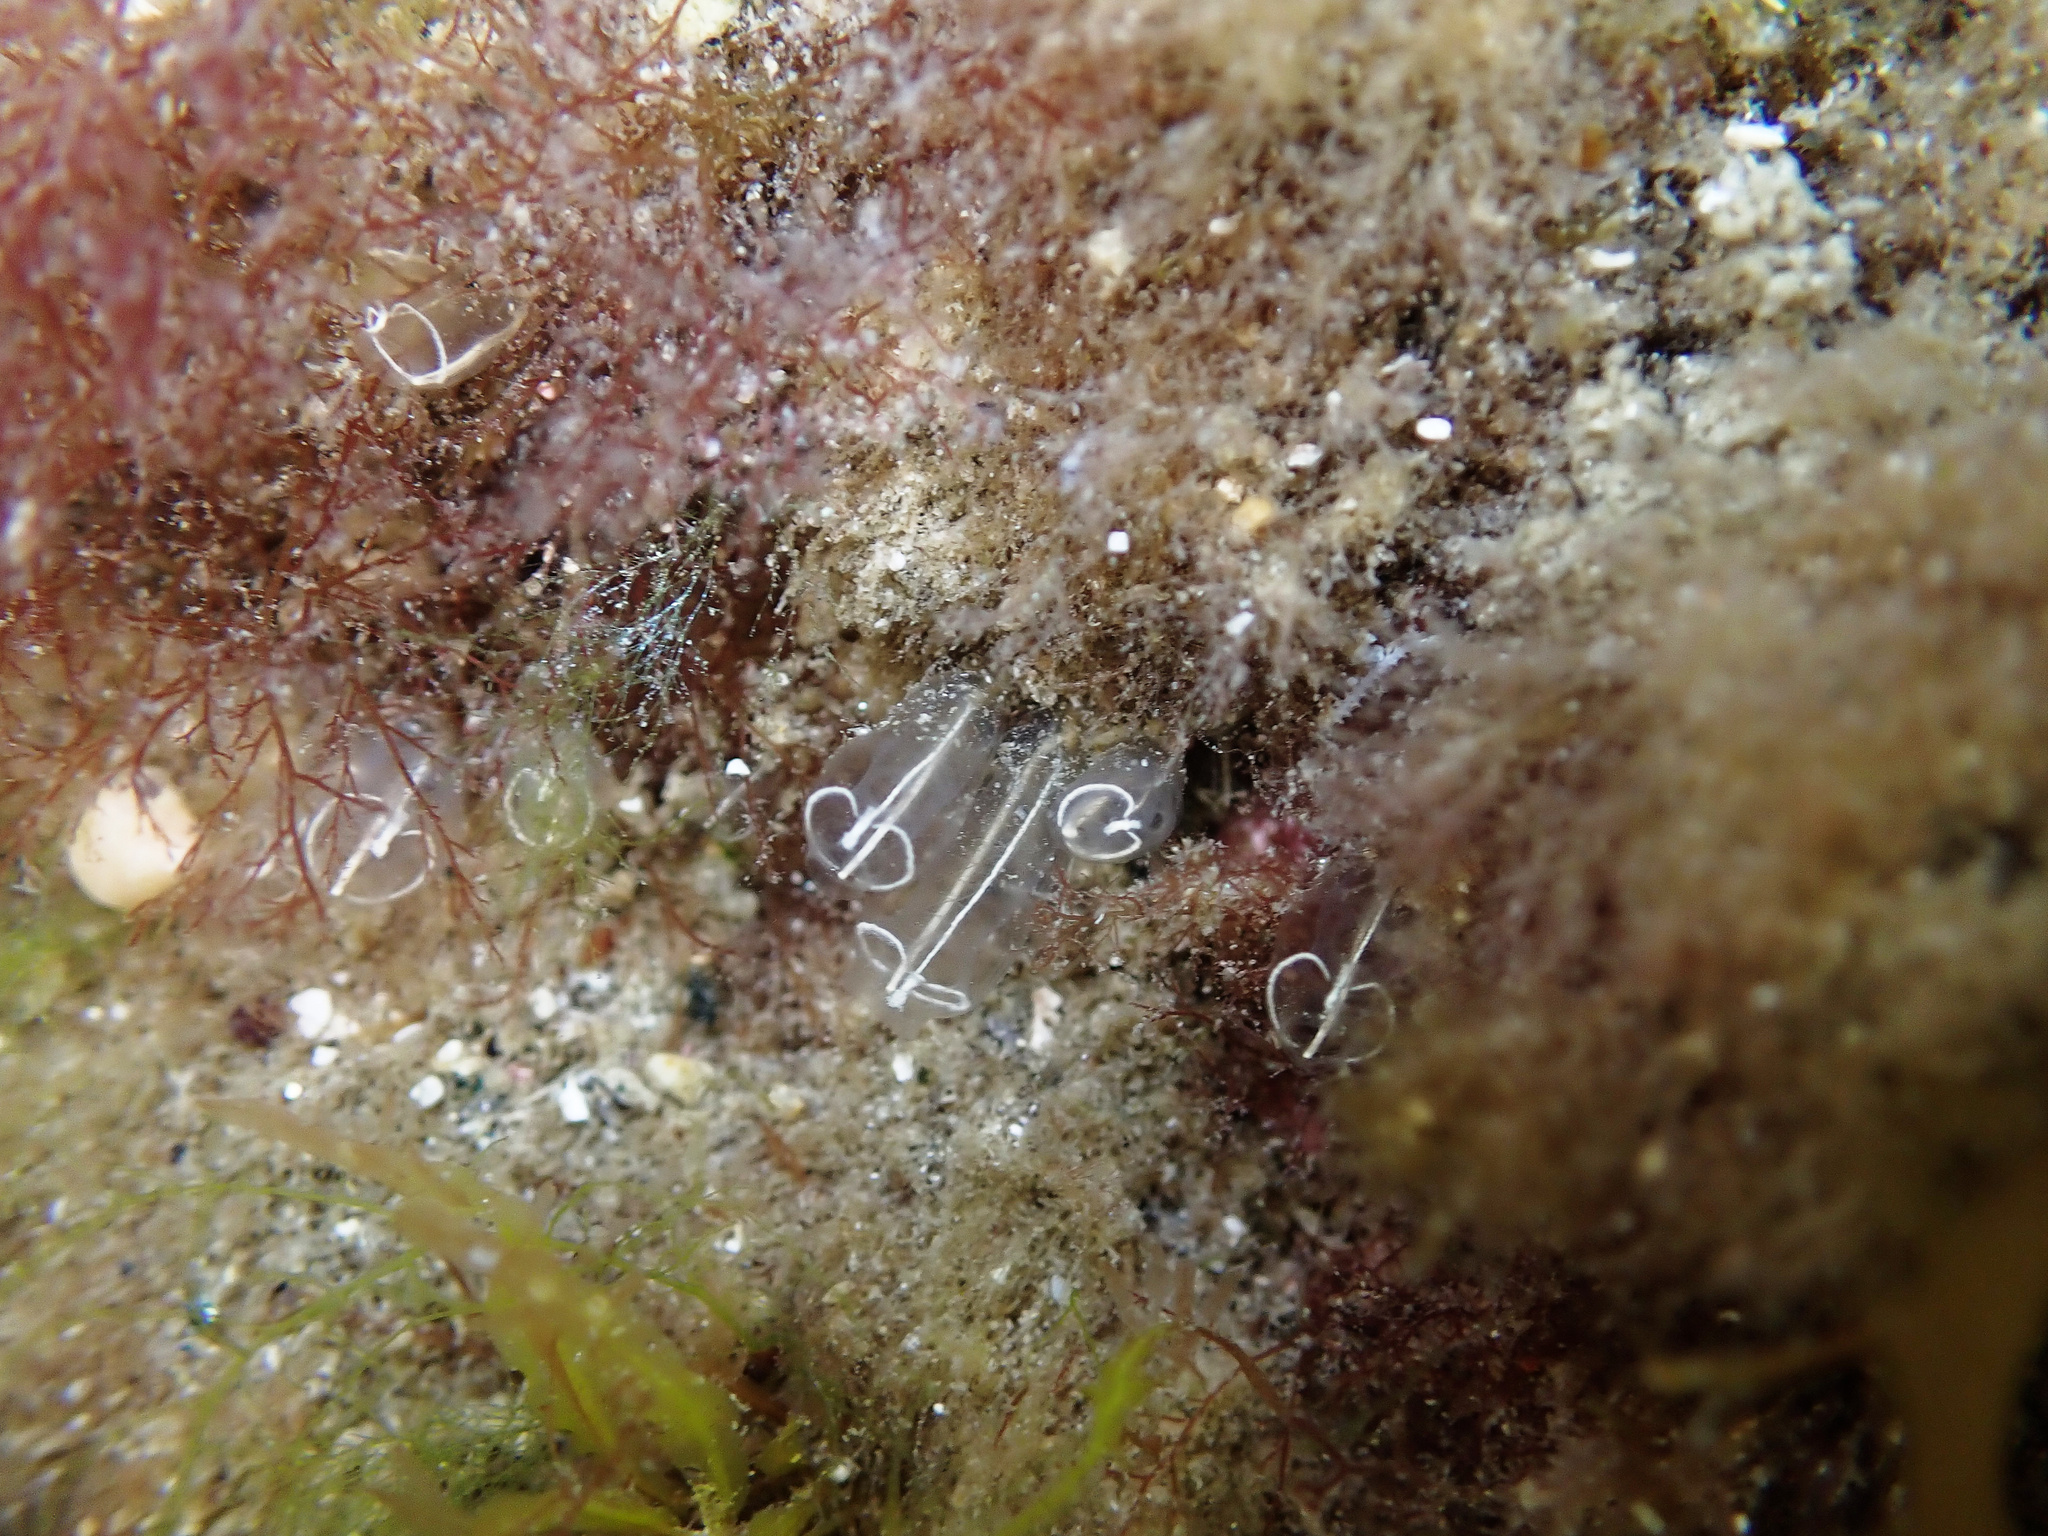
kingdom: Animalia
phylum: Chordata
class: Ascidiacea
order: Aplousobranchia
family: Clavelinidae
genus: Clavelina
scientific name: Clavelina lepadiformis
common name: Light bulb tunicate
